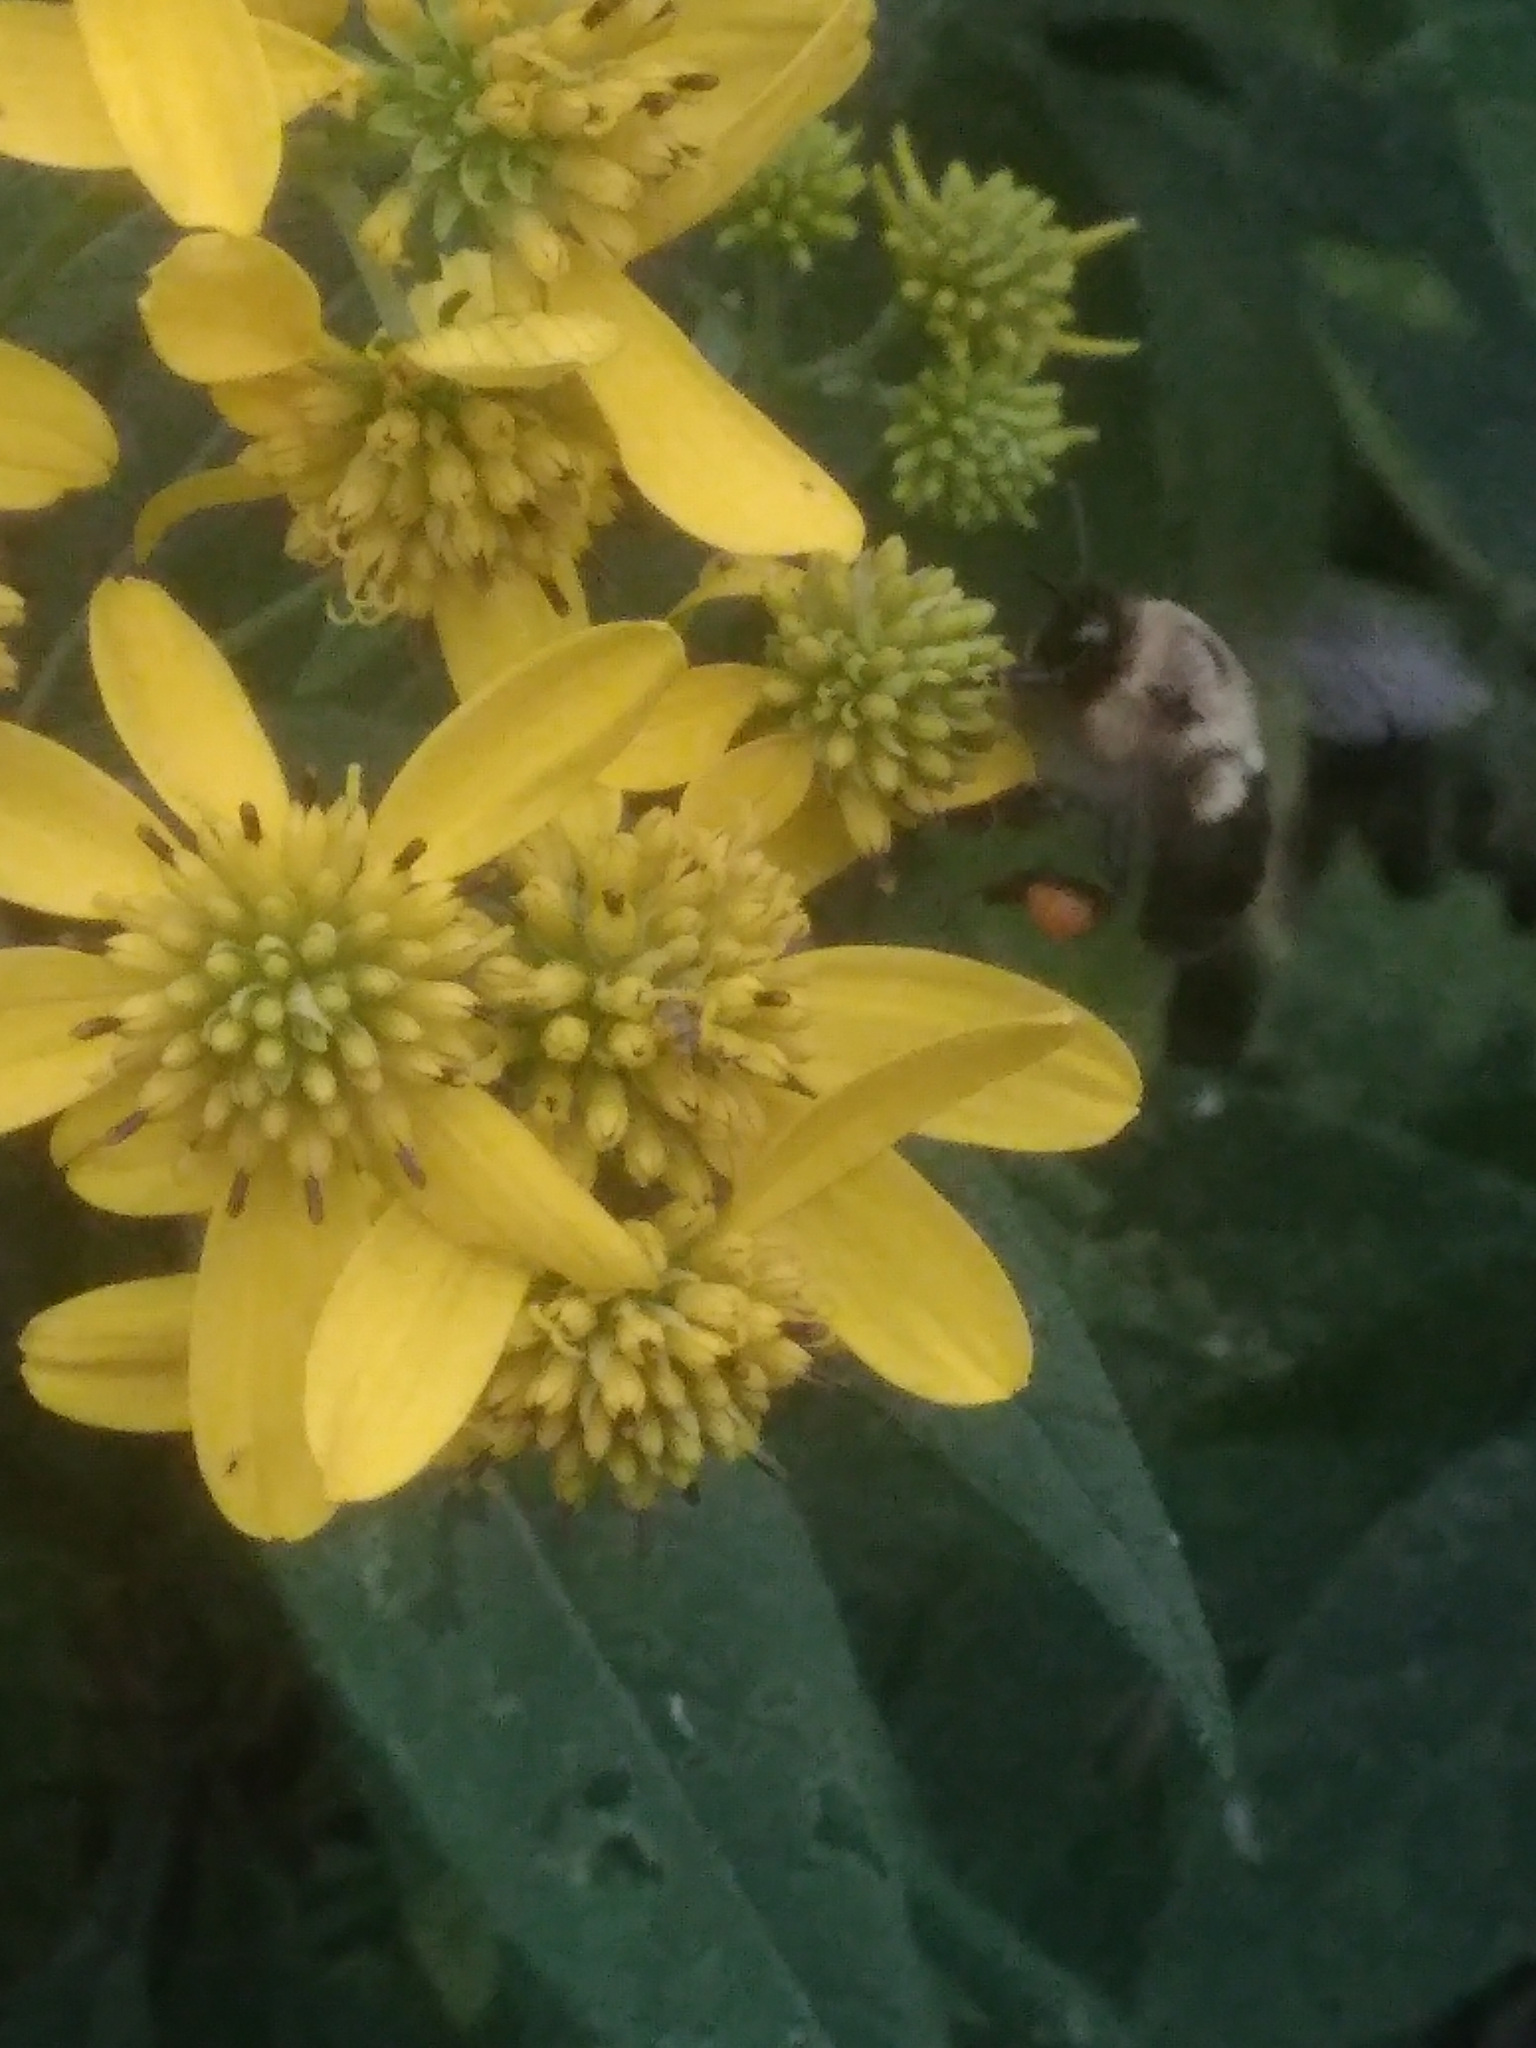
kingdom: Animalia
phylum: Arthropoda
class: Insecta
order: Hymenoptera
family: Apidae
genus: Bombus
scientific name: Bombus impatiens
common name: Common eastern bumble bee
